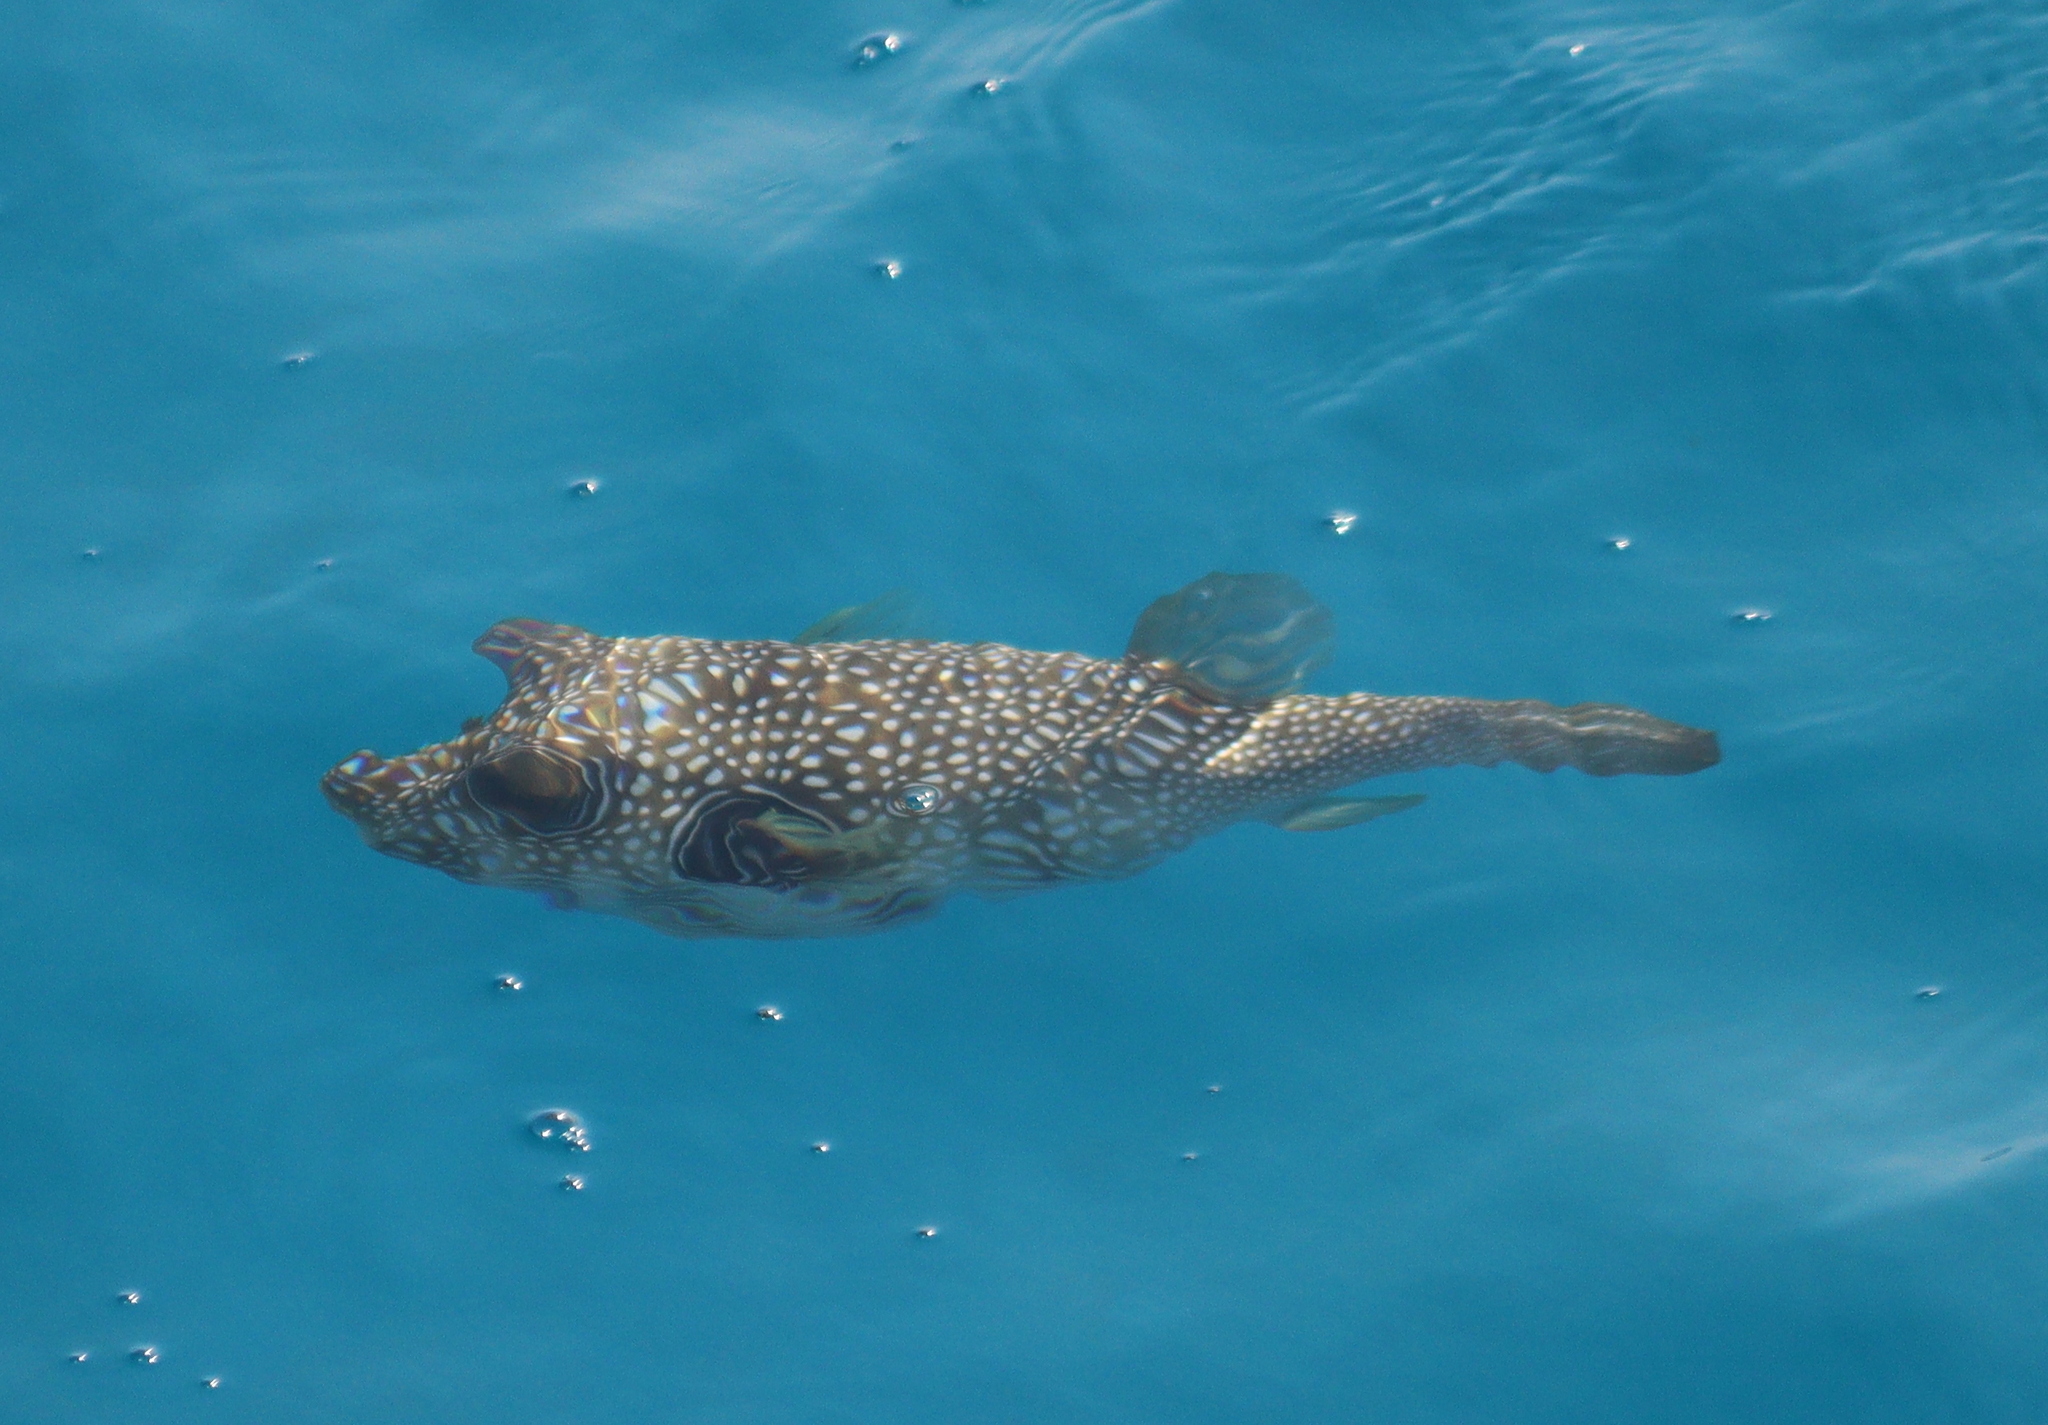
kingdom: Animalia
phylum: Chordata
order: Tetraodontiformes
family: Tetraodontidae
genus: Arothron
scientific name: Arothron hispidus
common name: Stripebelly puffer
